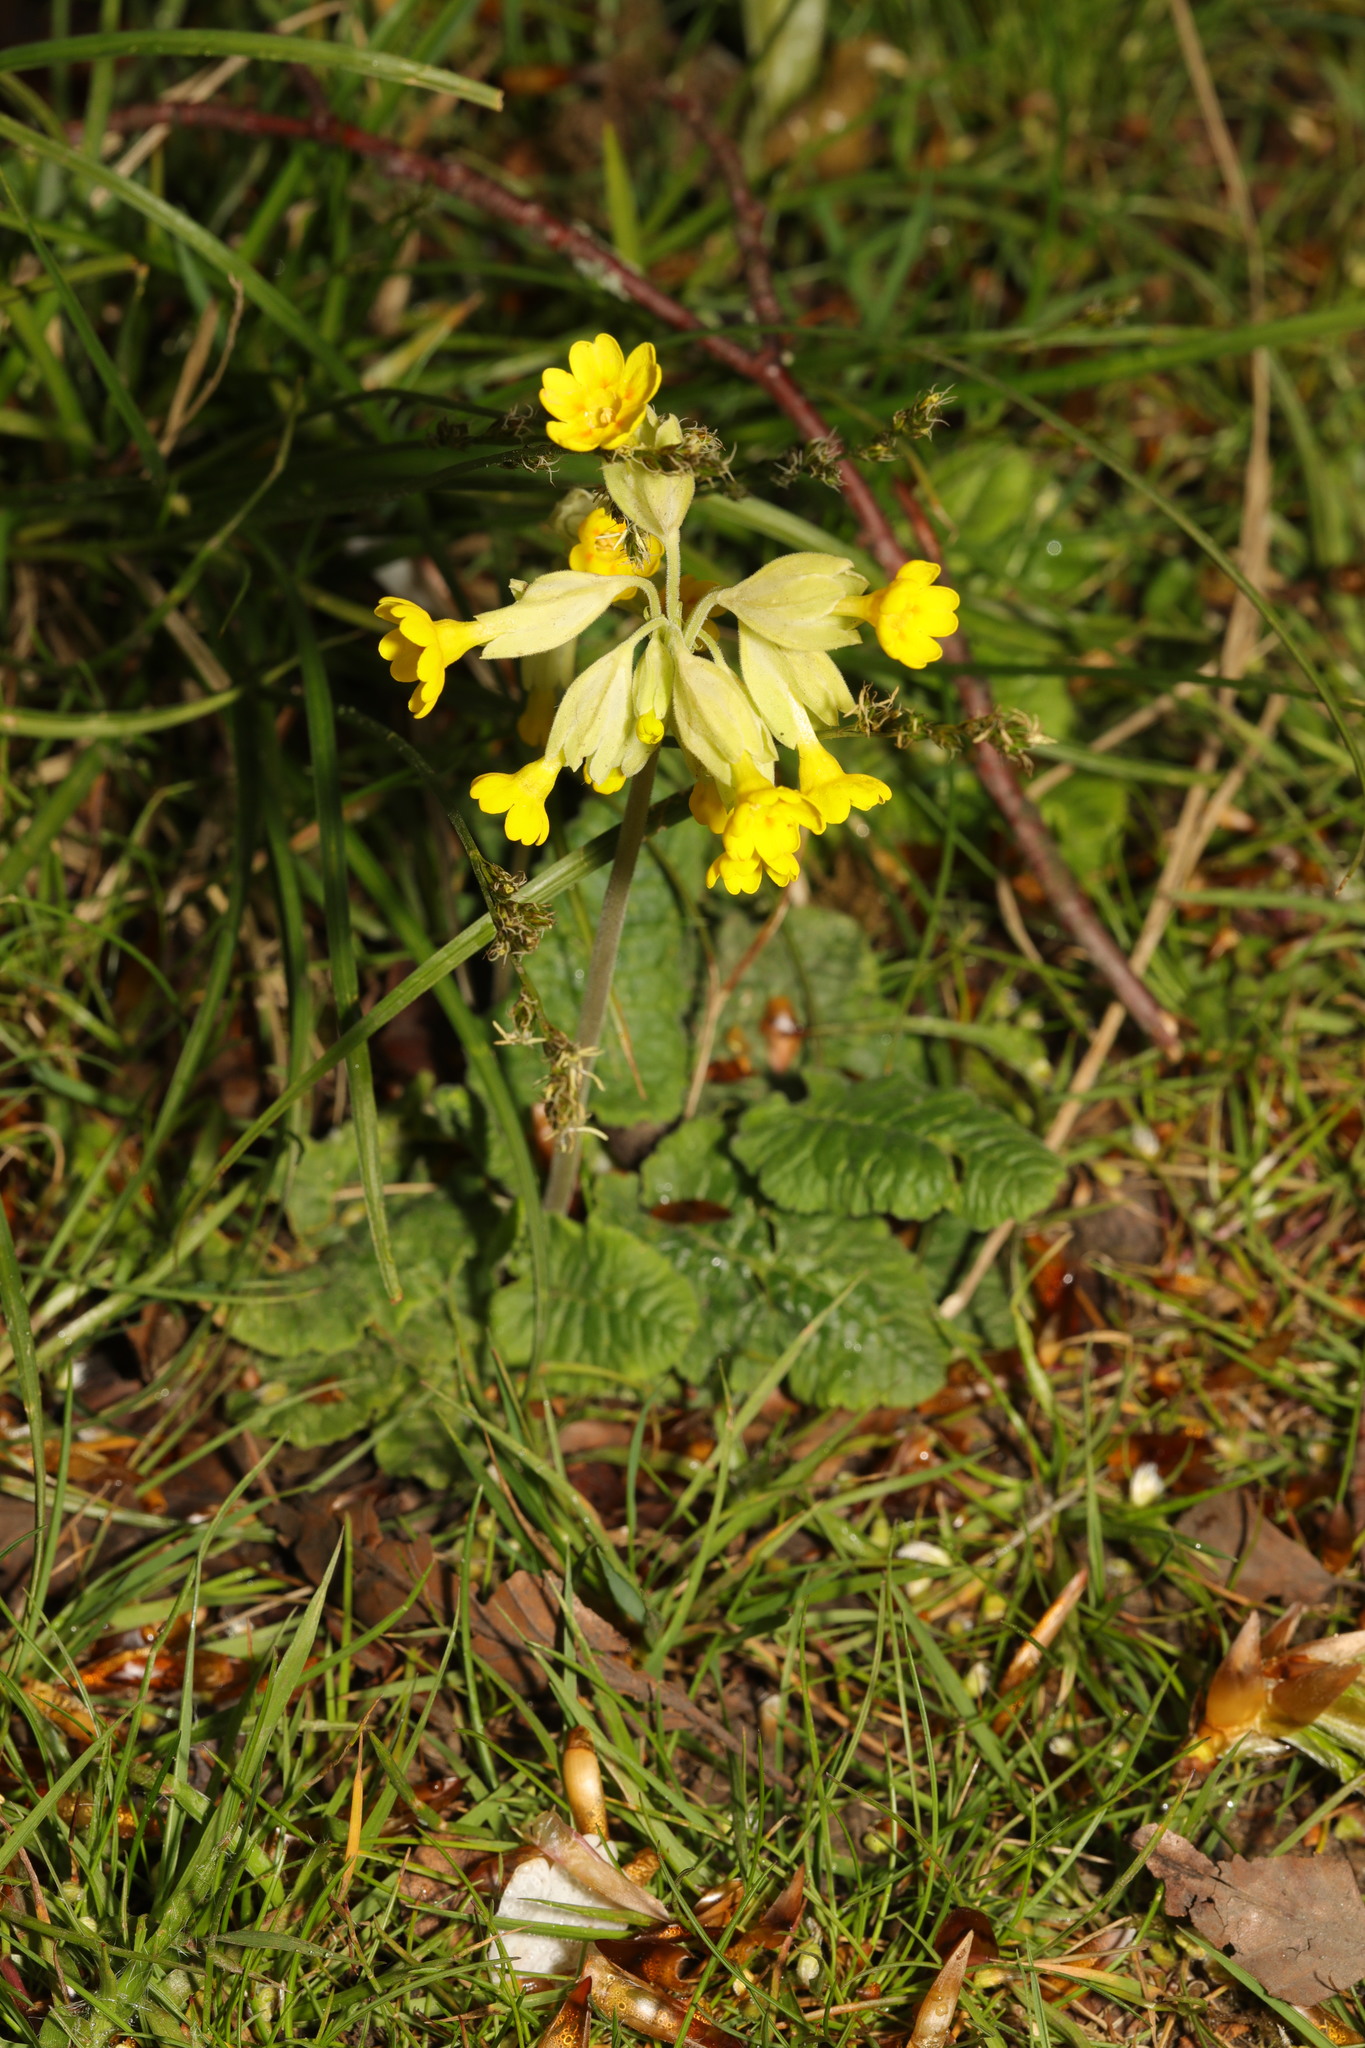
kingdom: Plantae
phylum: Tracheophyta
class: Magnoliopsida
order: Ericales
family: Primulaceae
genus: Primula
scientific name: Primula veris
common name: Cowslip
